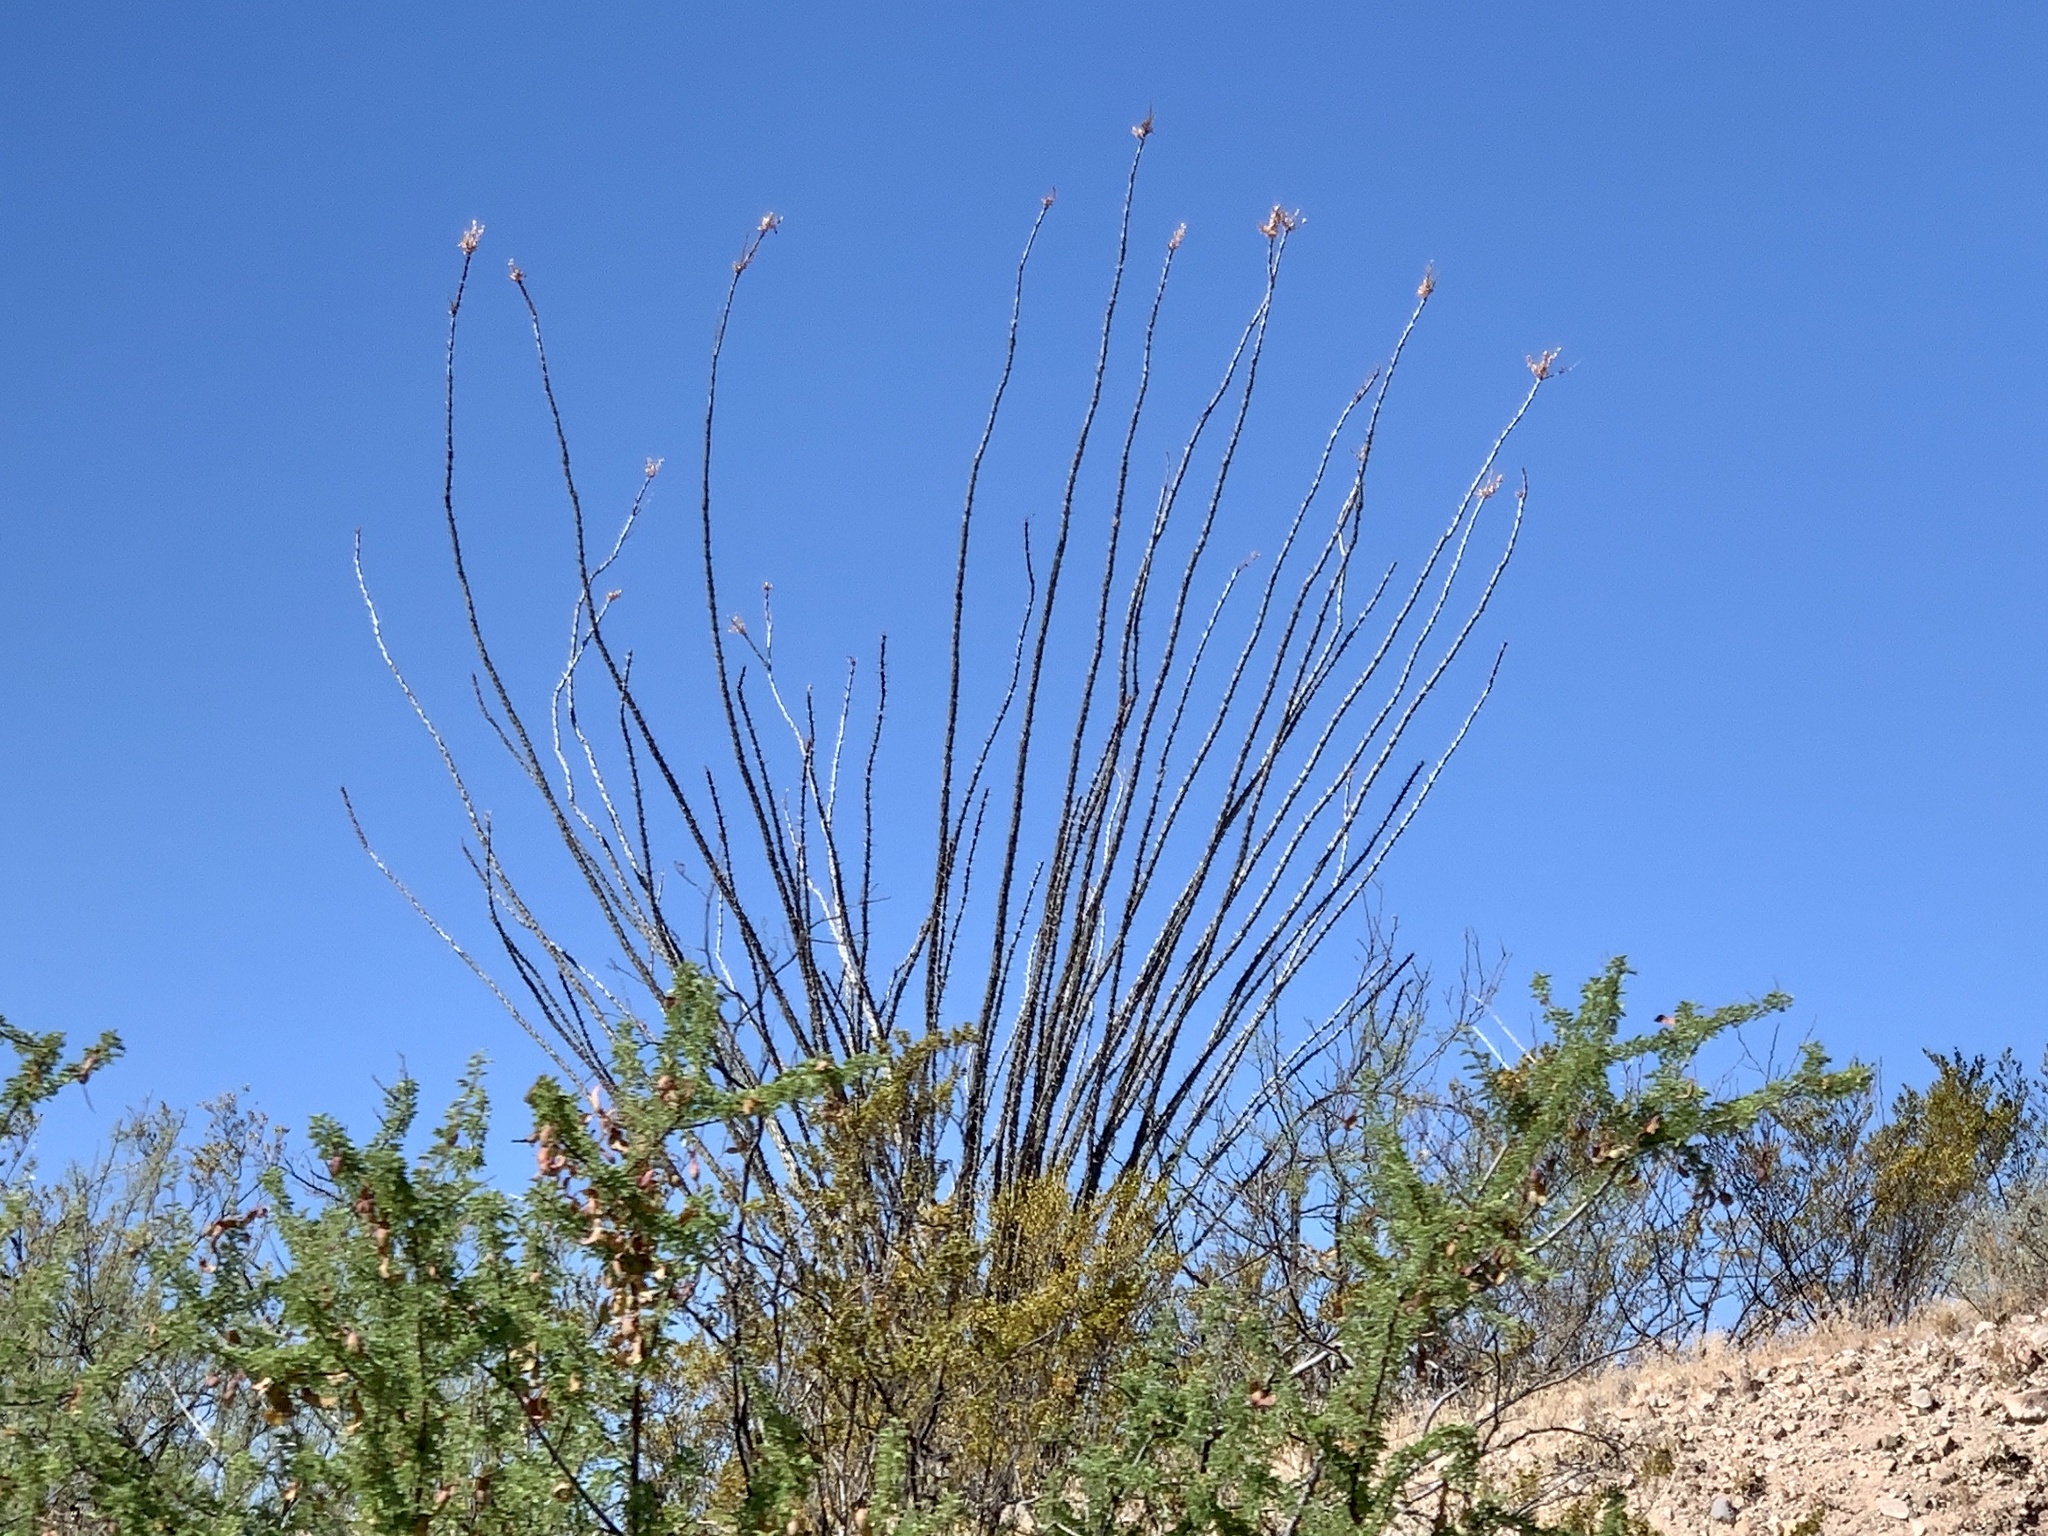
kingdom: Plantae
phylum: Tracheophyta
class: Magnoliopsida
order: Ericales
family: Fouquieriaceae
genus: Fouquieria
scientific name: Fouquieria splendens
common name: Vine-cactus
